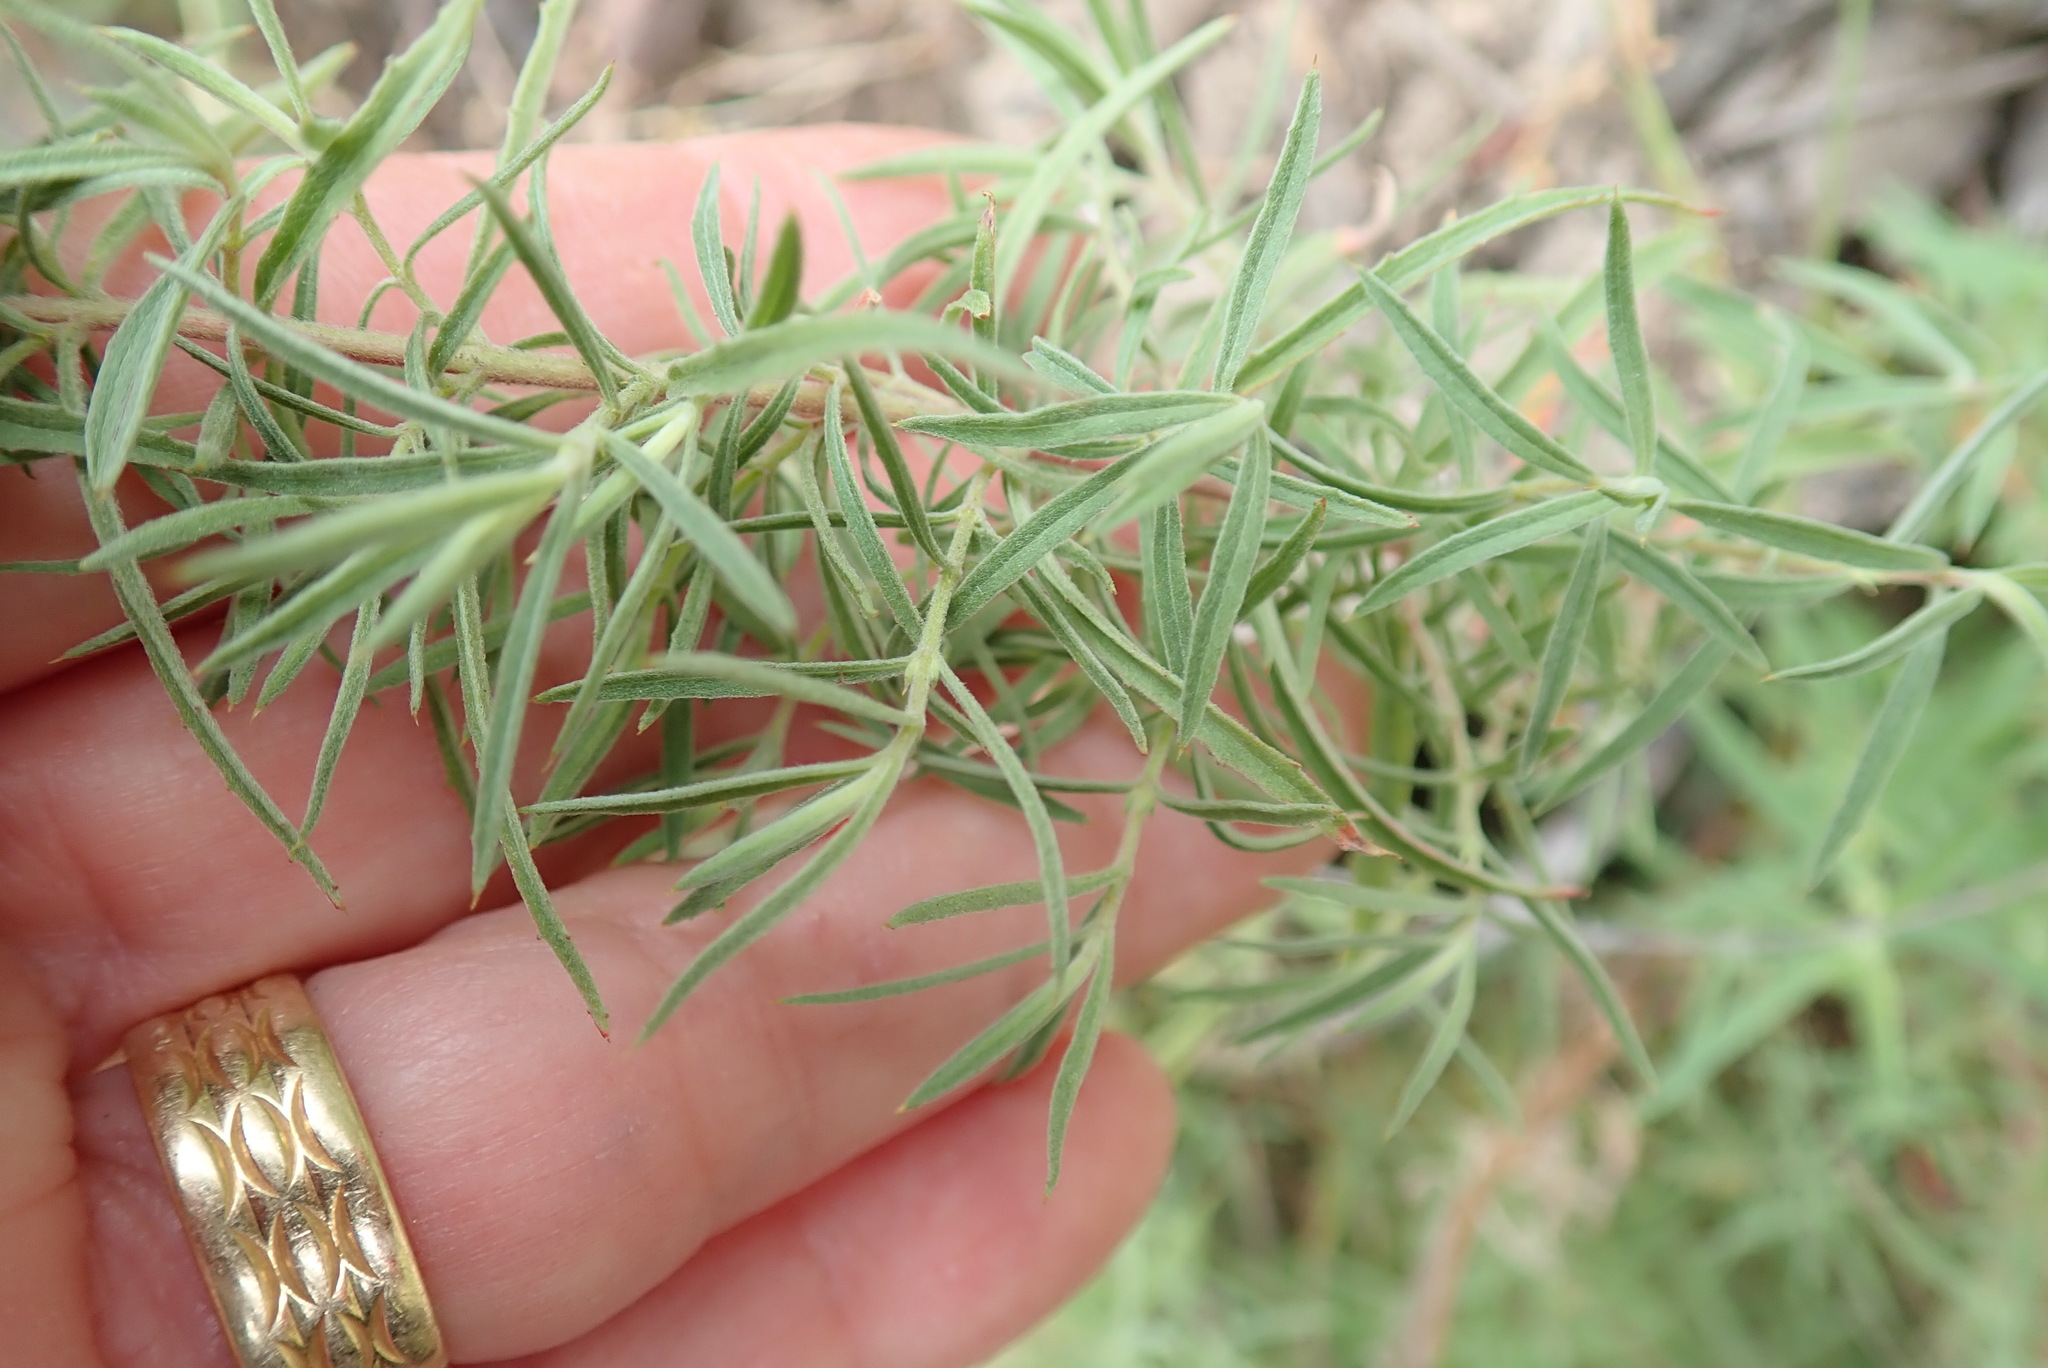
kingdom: Plantae
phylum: Tracheophyta
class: Magnoliopsida
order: Myrtales
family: Onagraceae
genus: Epilobium
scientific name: Epilobium canum
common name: California-fuchsia
